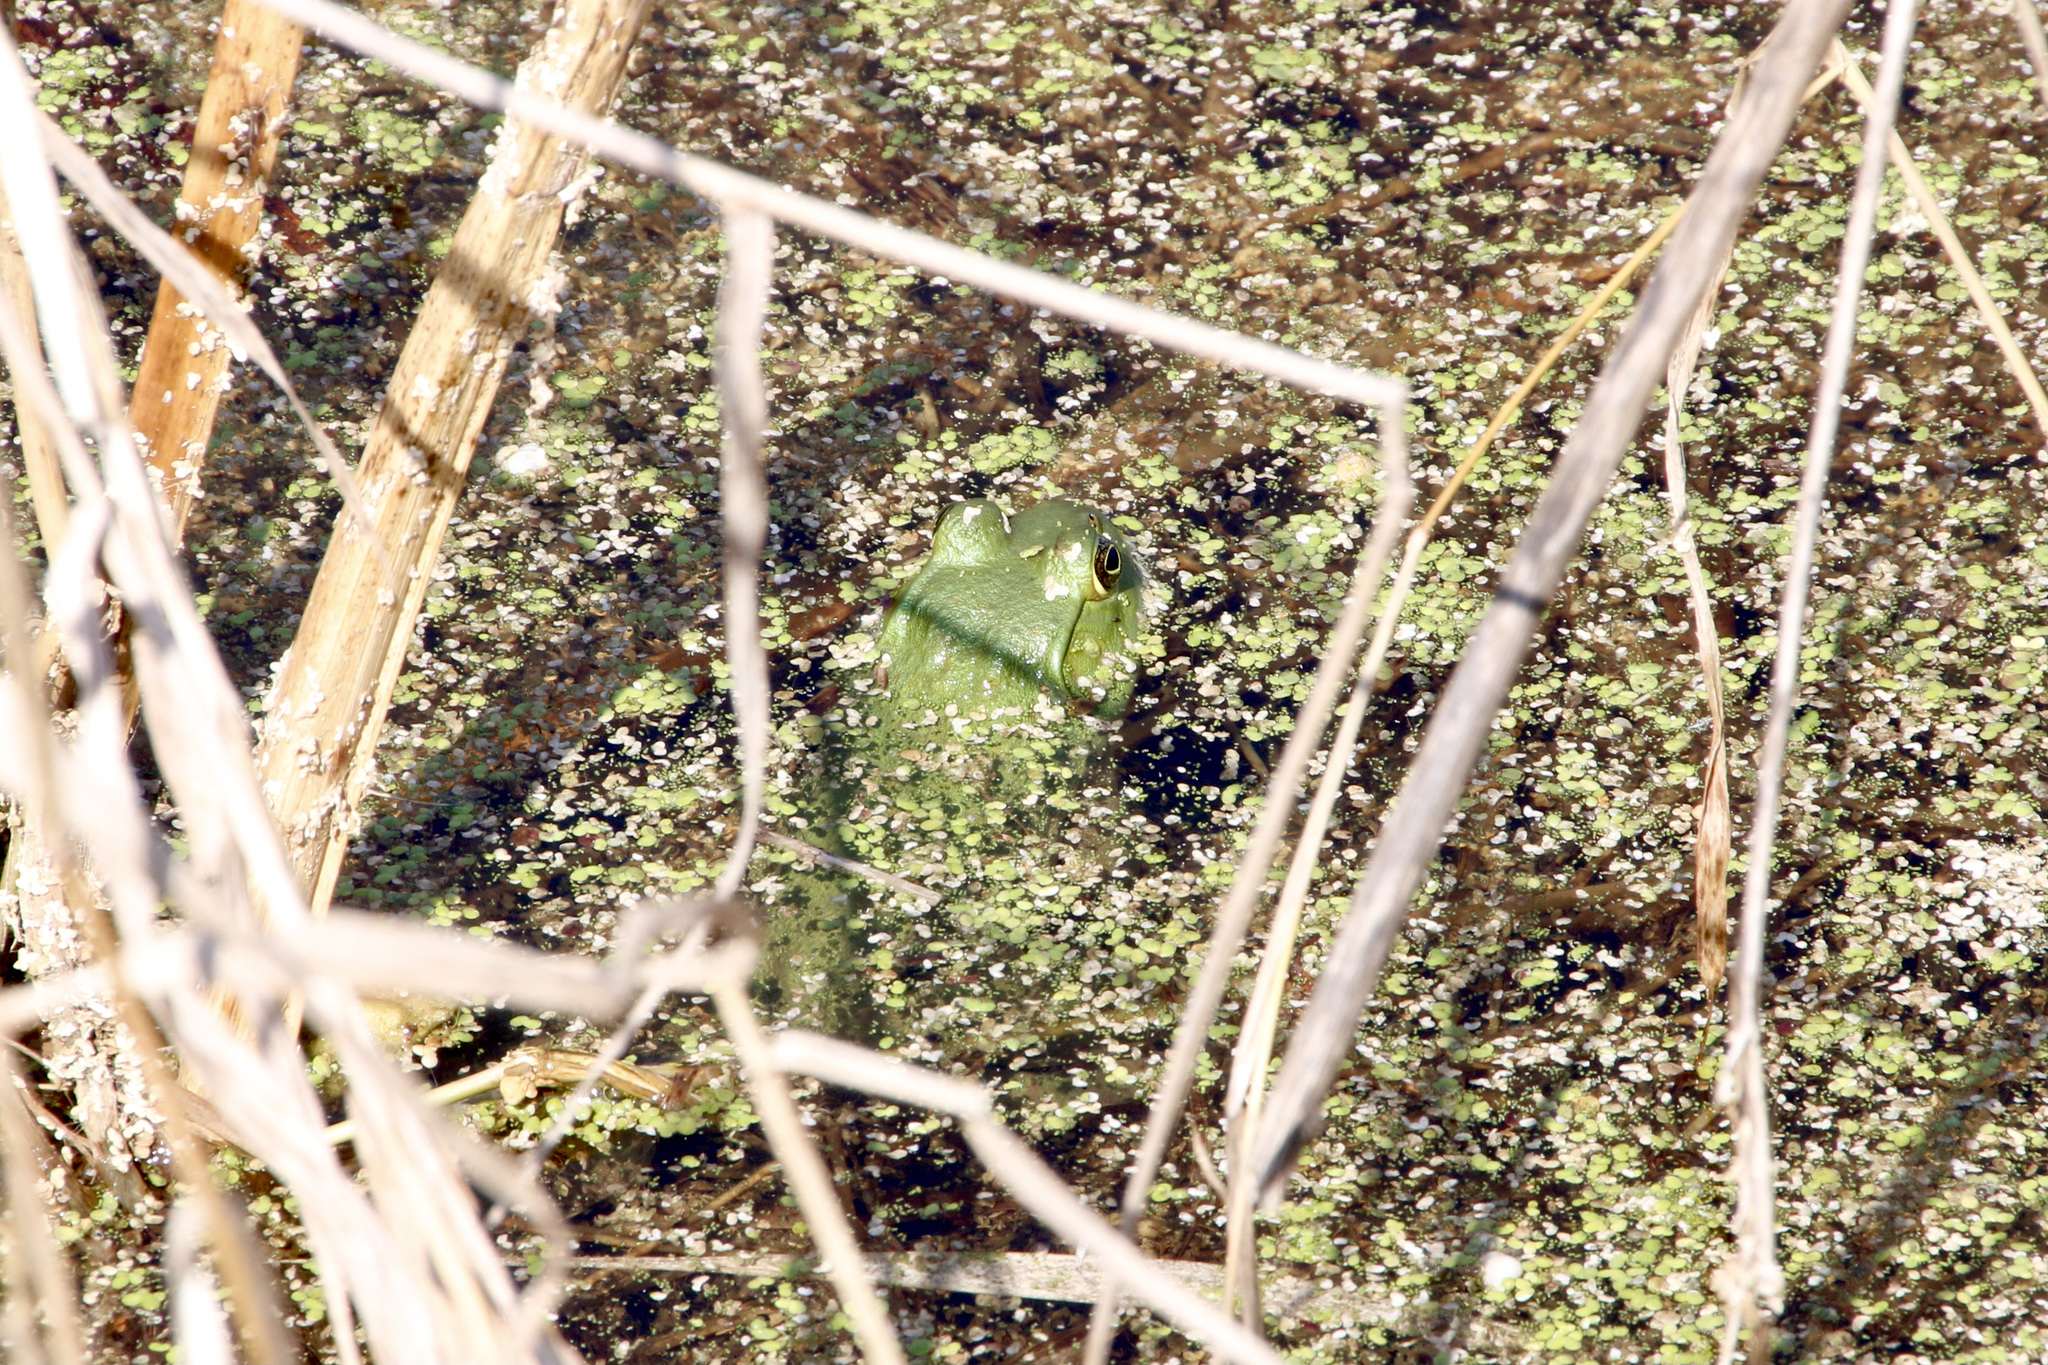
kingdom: Animalia
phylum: Chordata
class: Amphibia
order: Anura
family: Ranidae
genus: Lithobates
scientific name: Lithobates catesbeianus
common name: American bullfrog
